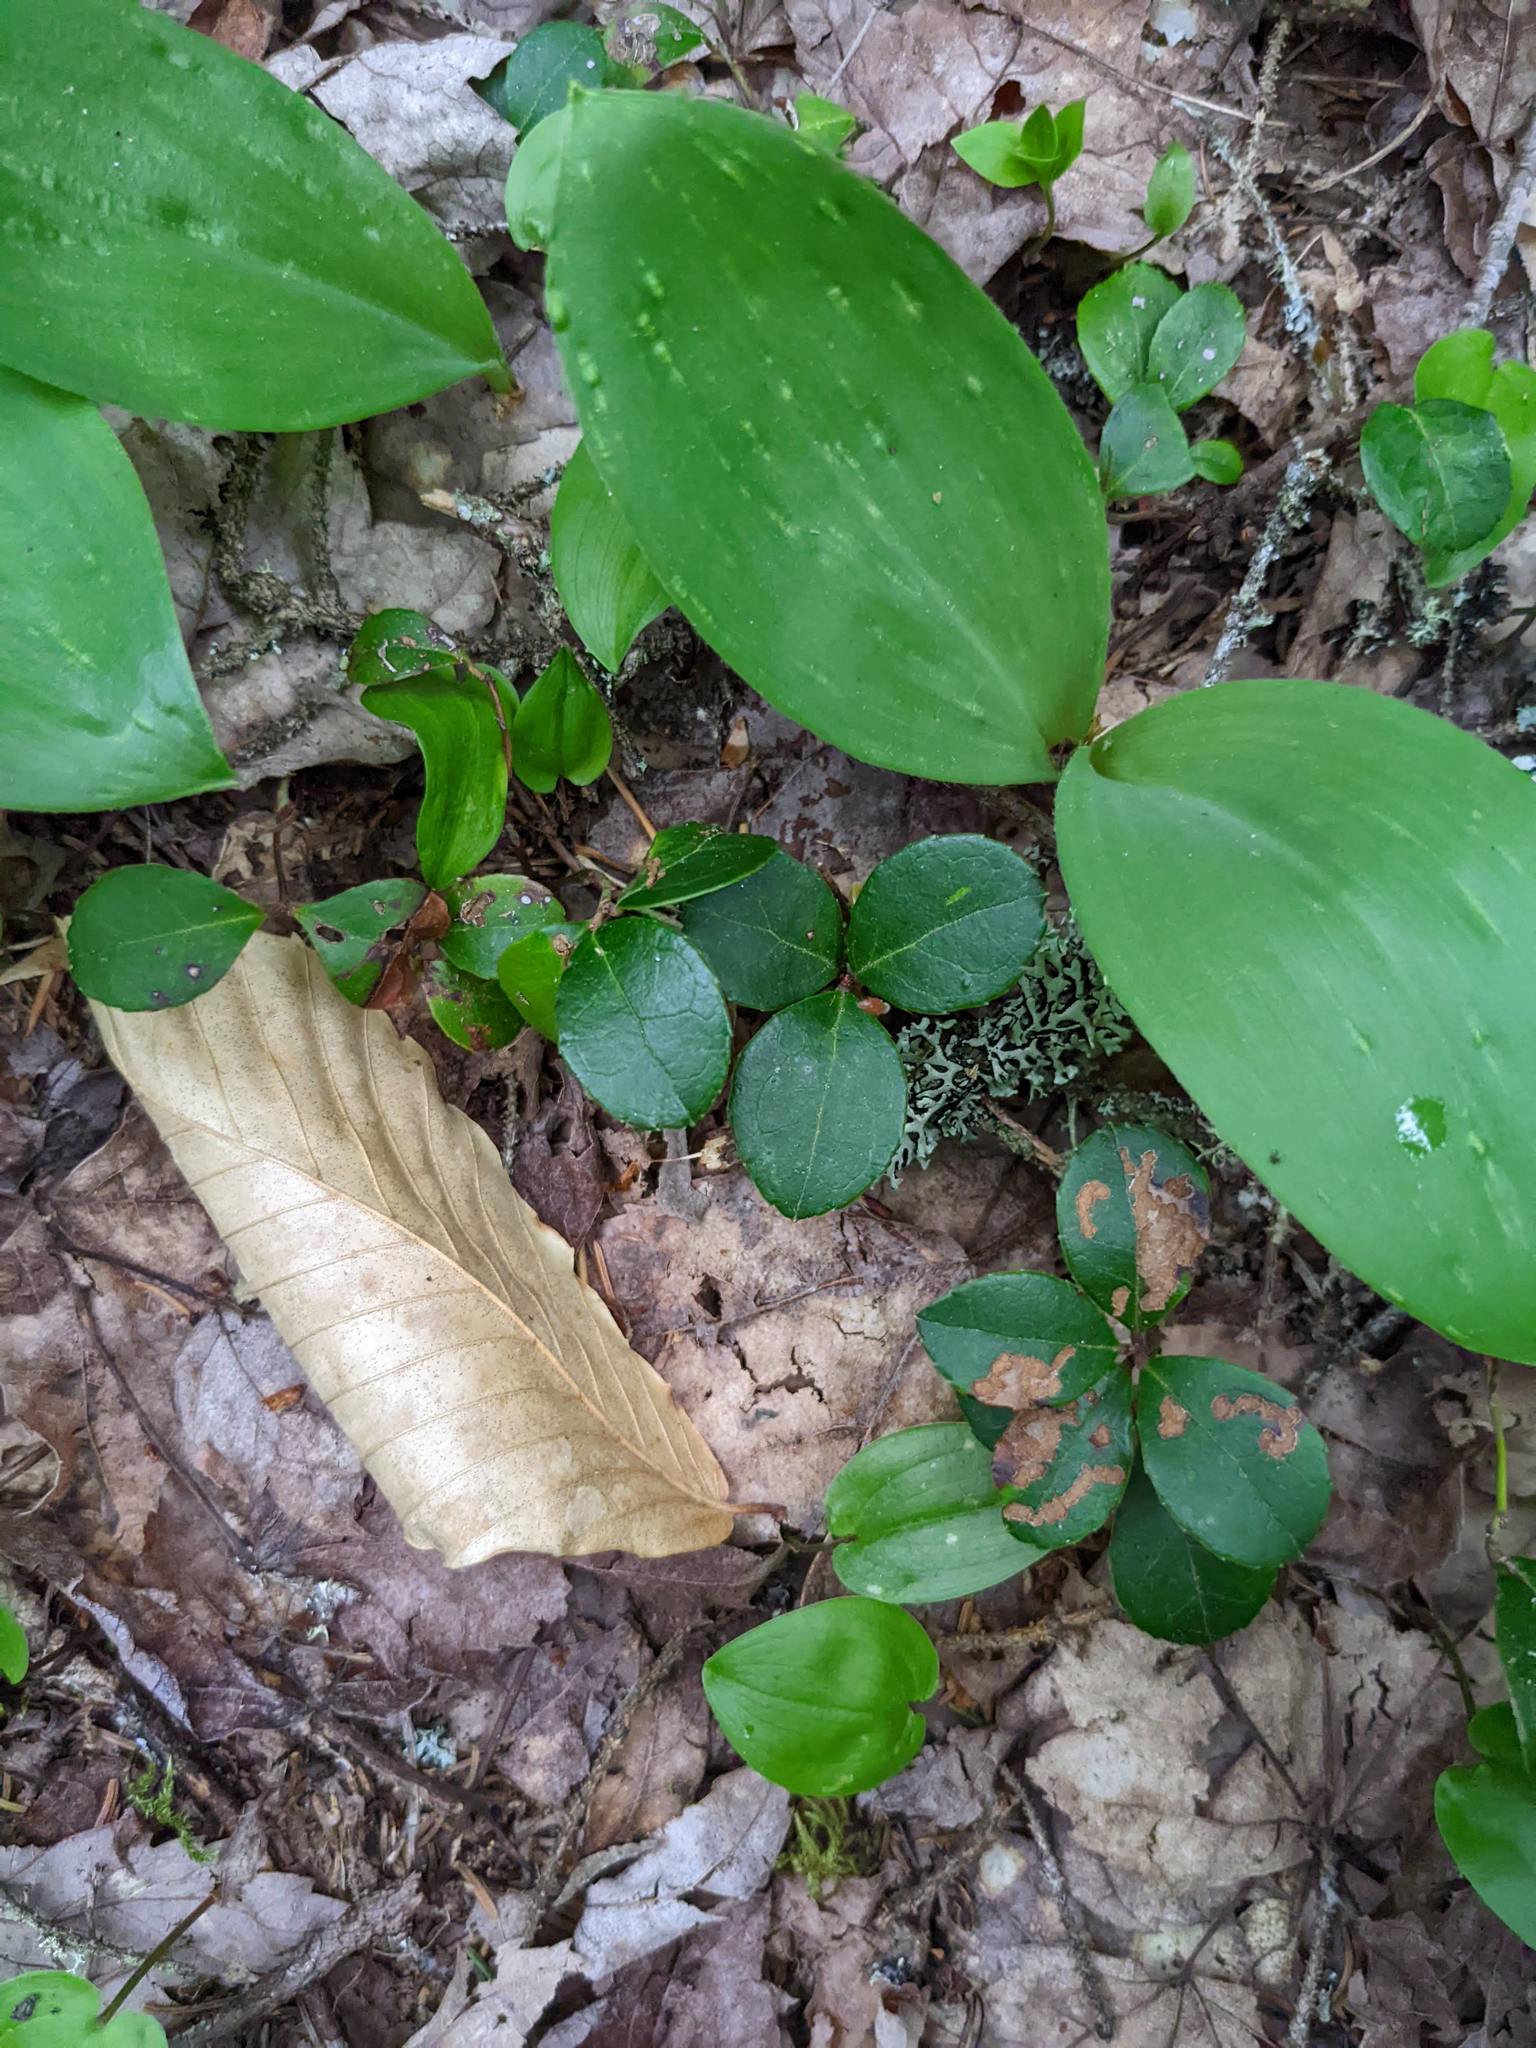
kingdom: Plantae
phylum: Tracheophyta
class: Magnoliopsida
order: Ericales
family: Ericaceae
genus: Gaultheria
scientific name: Gaultheria procumbens
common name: Checkerberry
